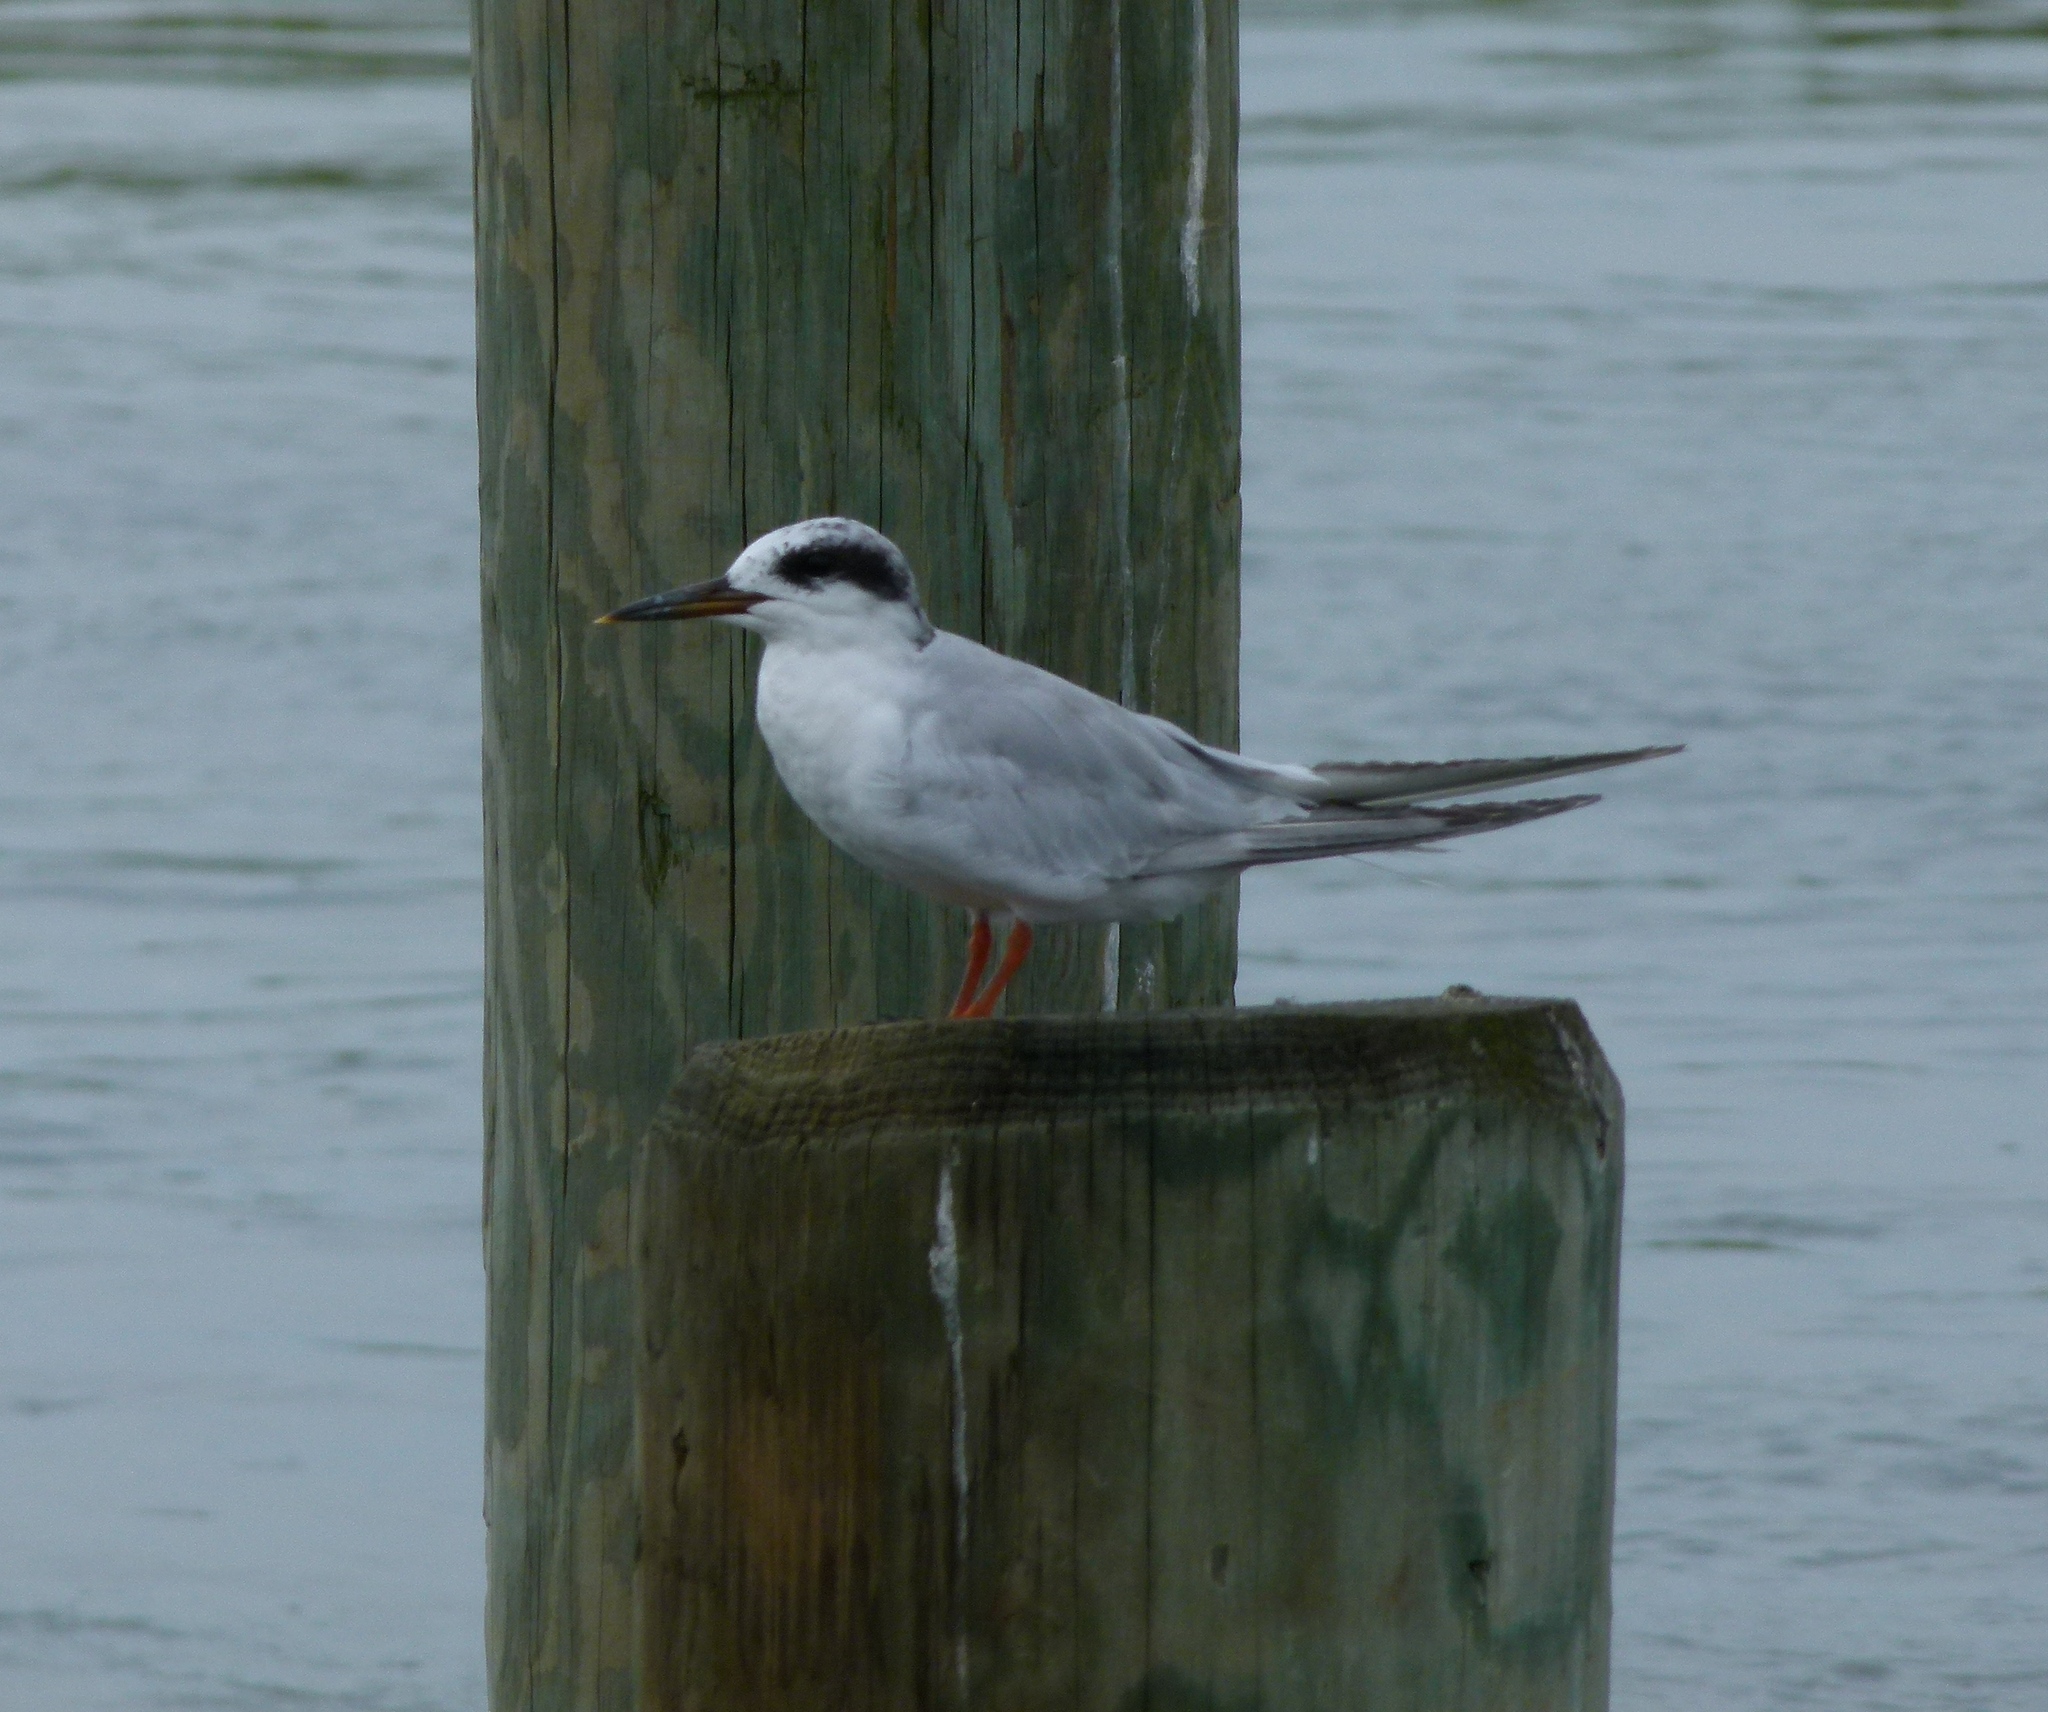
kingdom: Animalia
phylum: Chordata
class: Aves
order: Charadriiformes
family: Laridae
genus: Sterna
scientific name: Sterna forsteri
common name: Forster's tern
